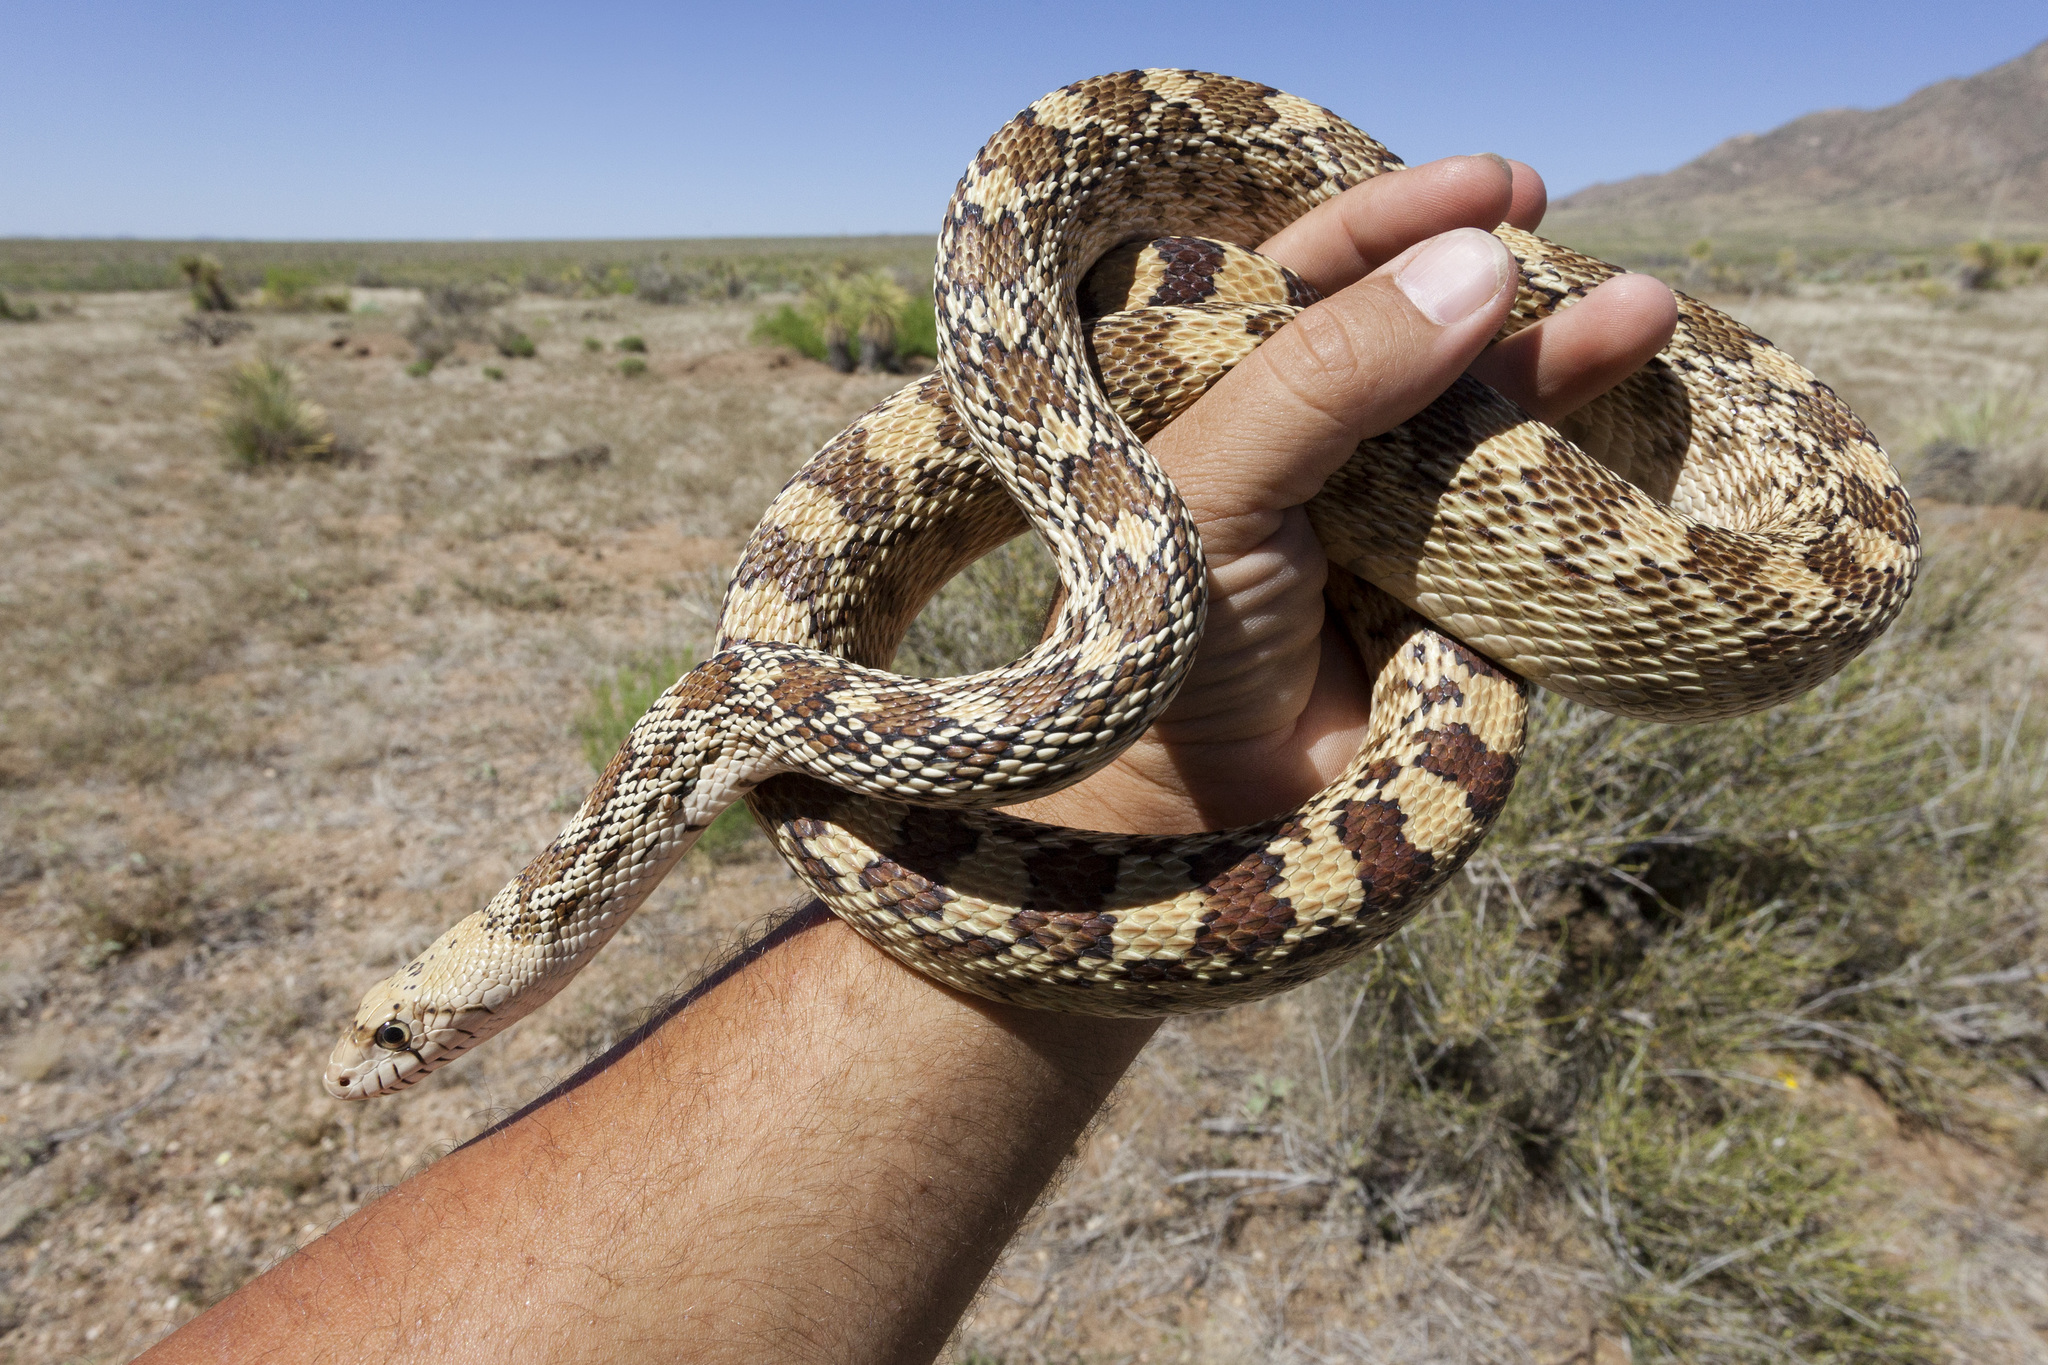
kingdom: Animalia
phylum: Chordata
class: Squamata
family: Colubridae
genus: Pituophis
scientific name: Pituophis catenifer
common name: Gopher snake
